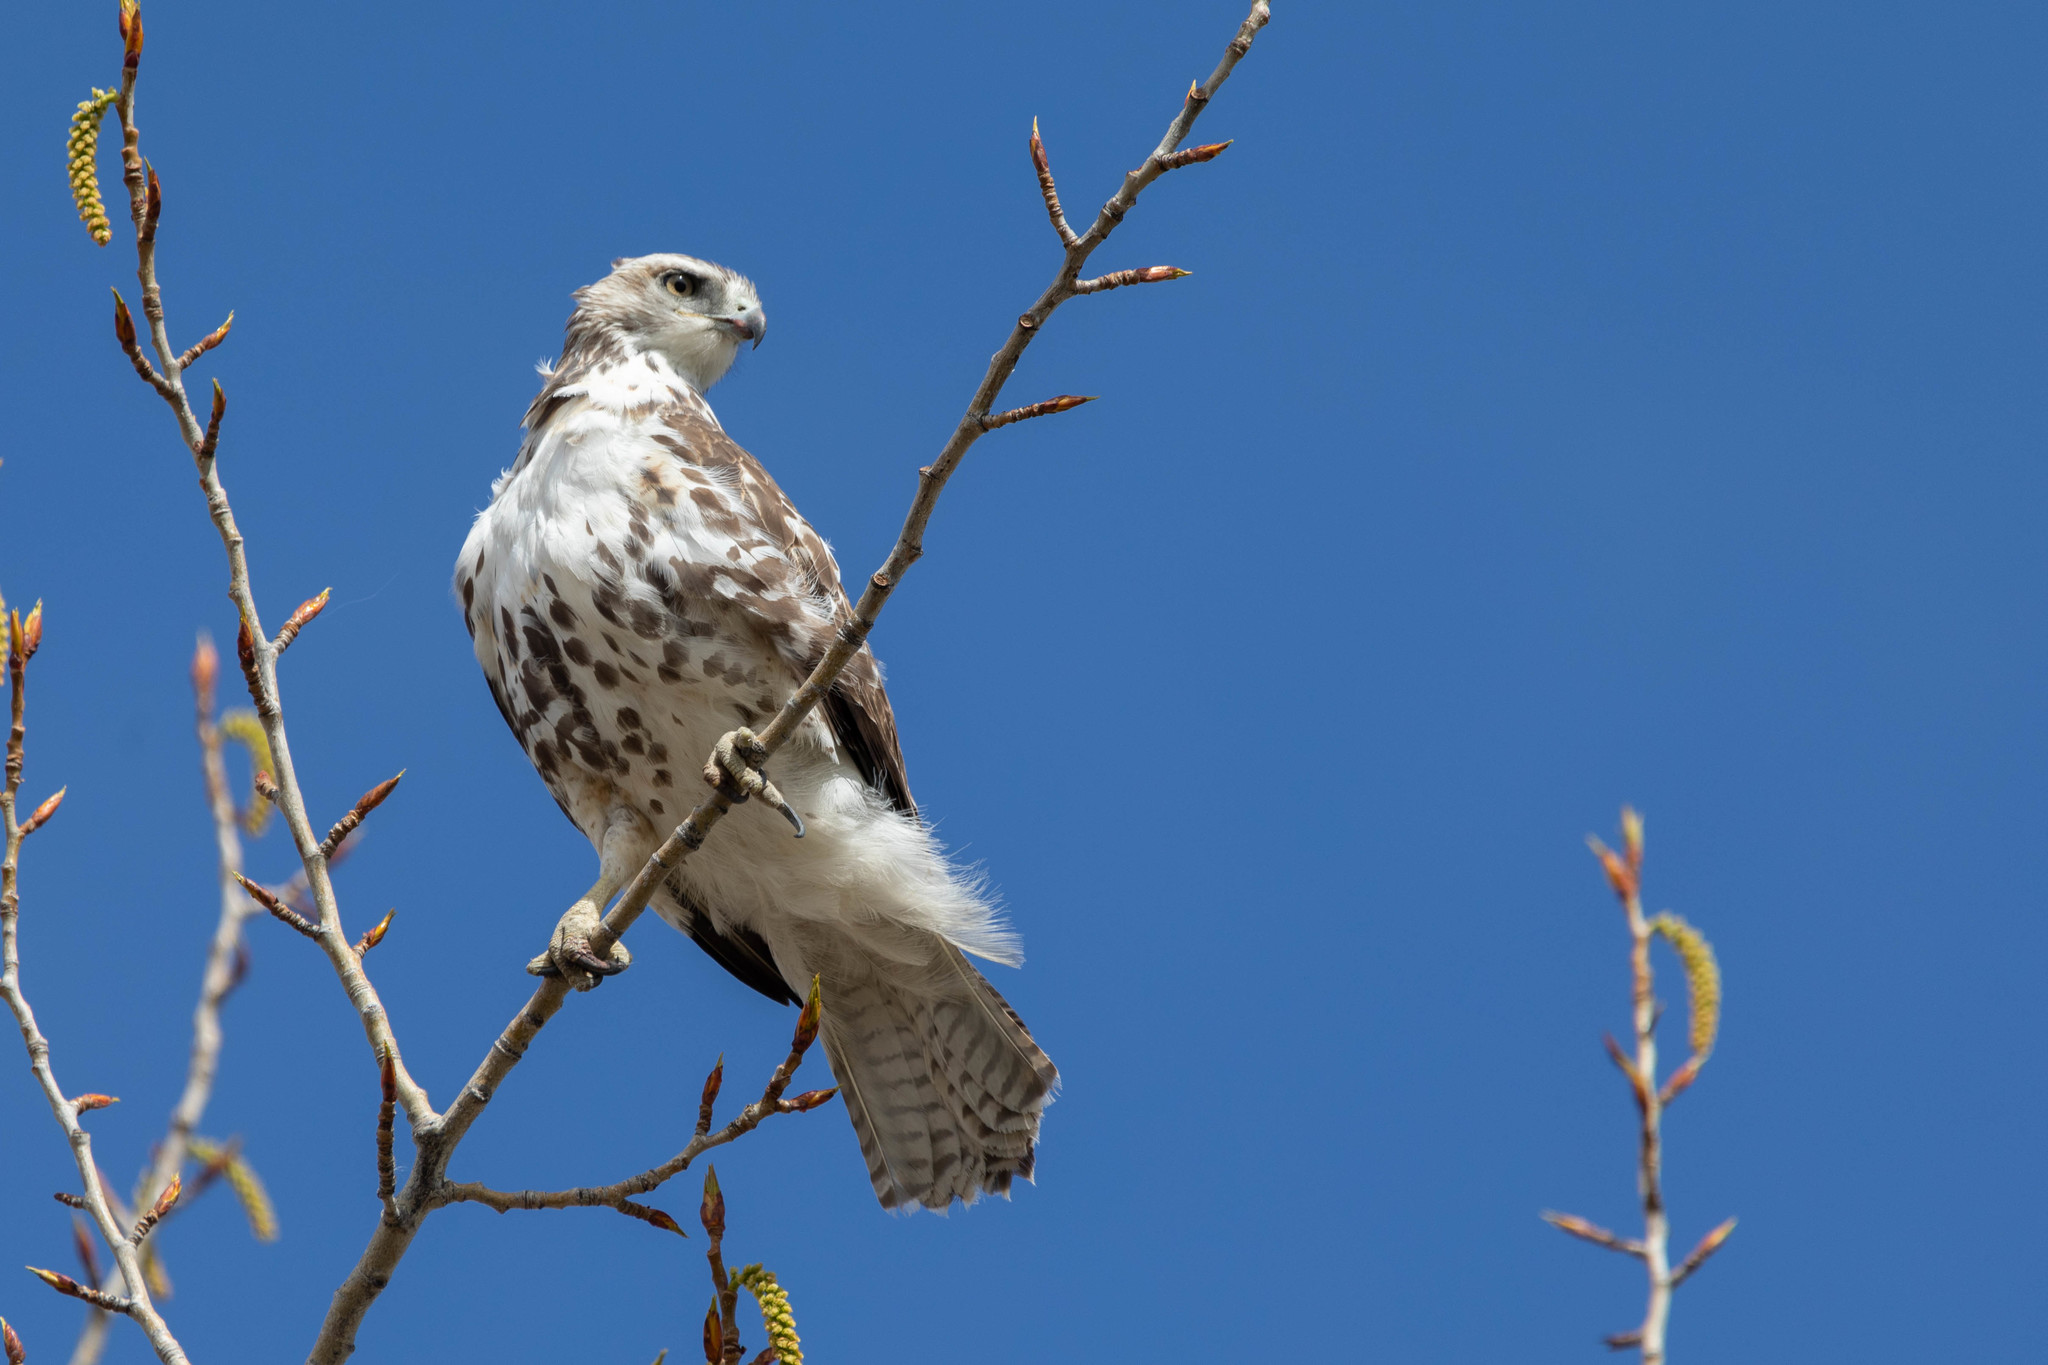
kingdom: Animalia
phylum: Chordata
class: Aves
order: Accipitriformes
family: Accipitridae
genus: Buteo
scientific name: Buteo jamaicensis
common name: Red-tailed hawk
